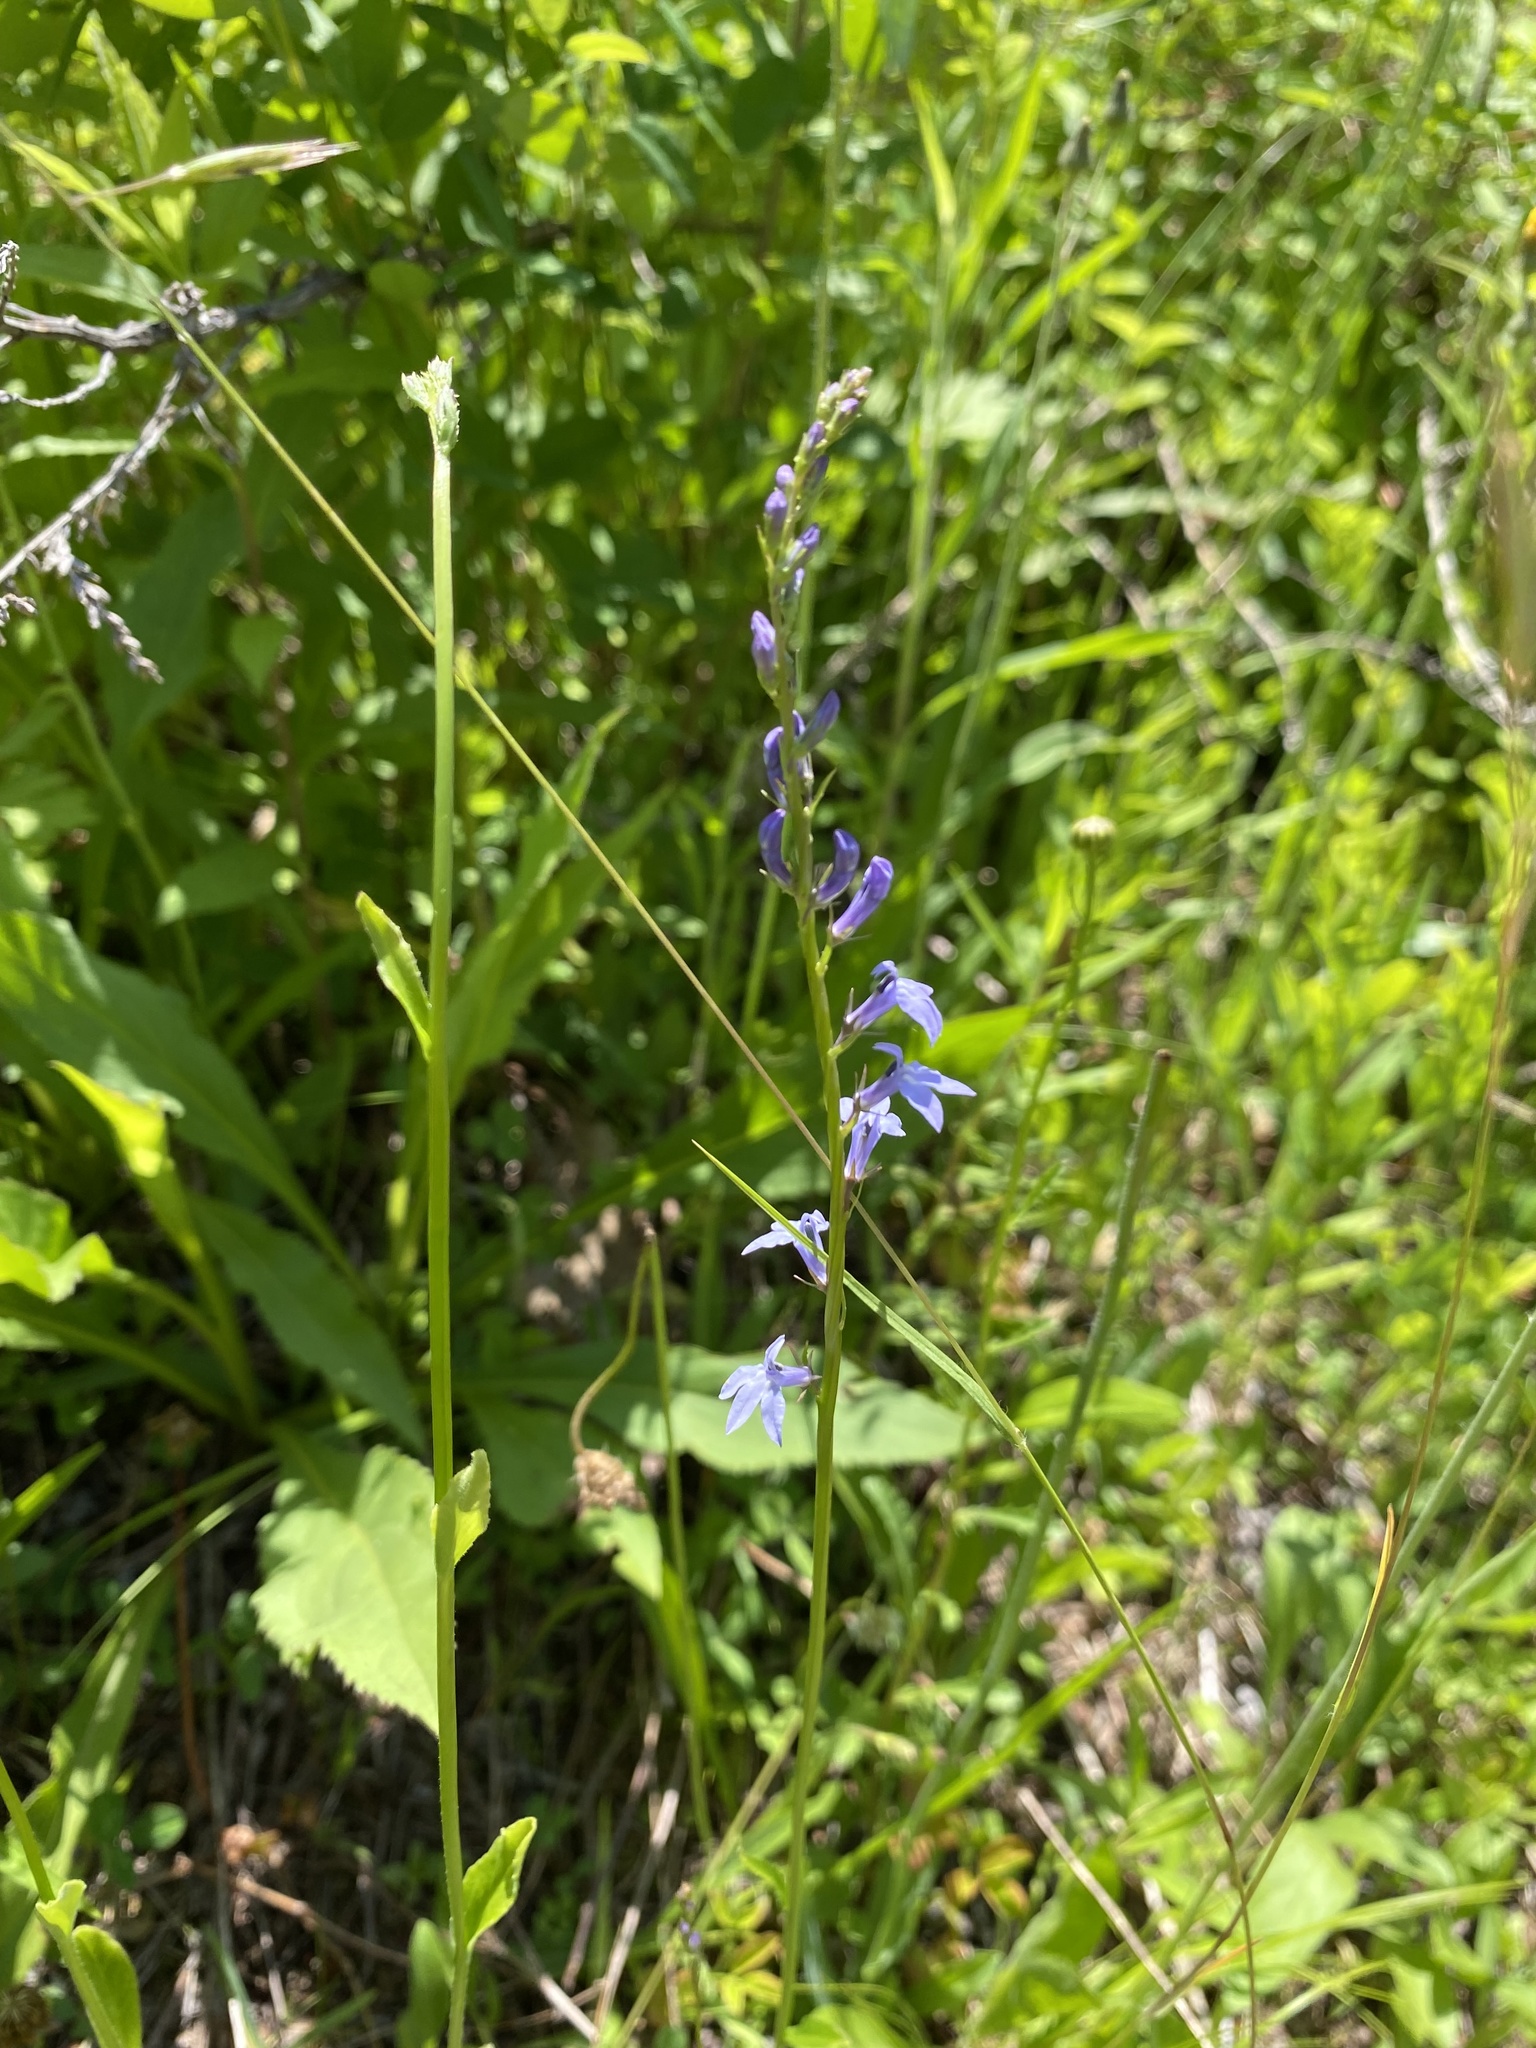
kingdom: Plantae
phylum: Tracheophyta
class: Magnoliopsida
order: Asterales
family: Campanulaceae
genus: Lobelia
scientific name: Lobelia spicata
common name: Pale-spike lobelia
